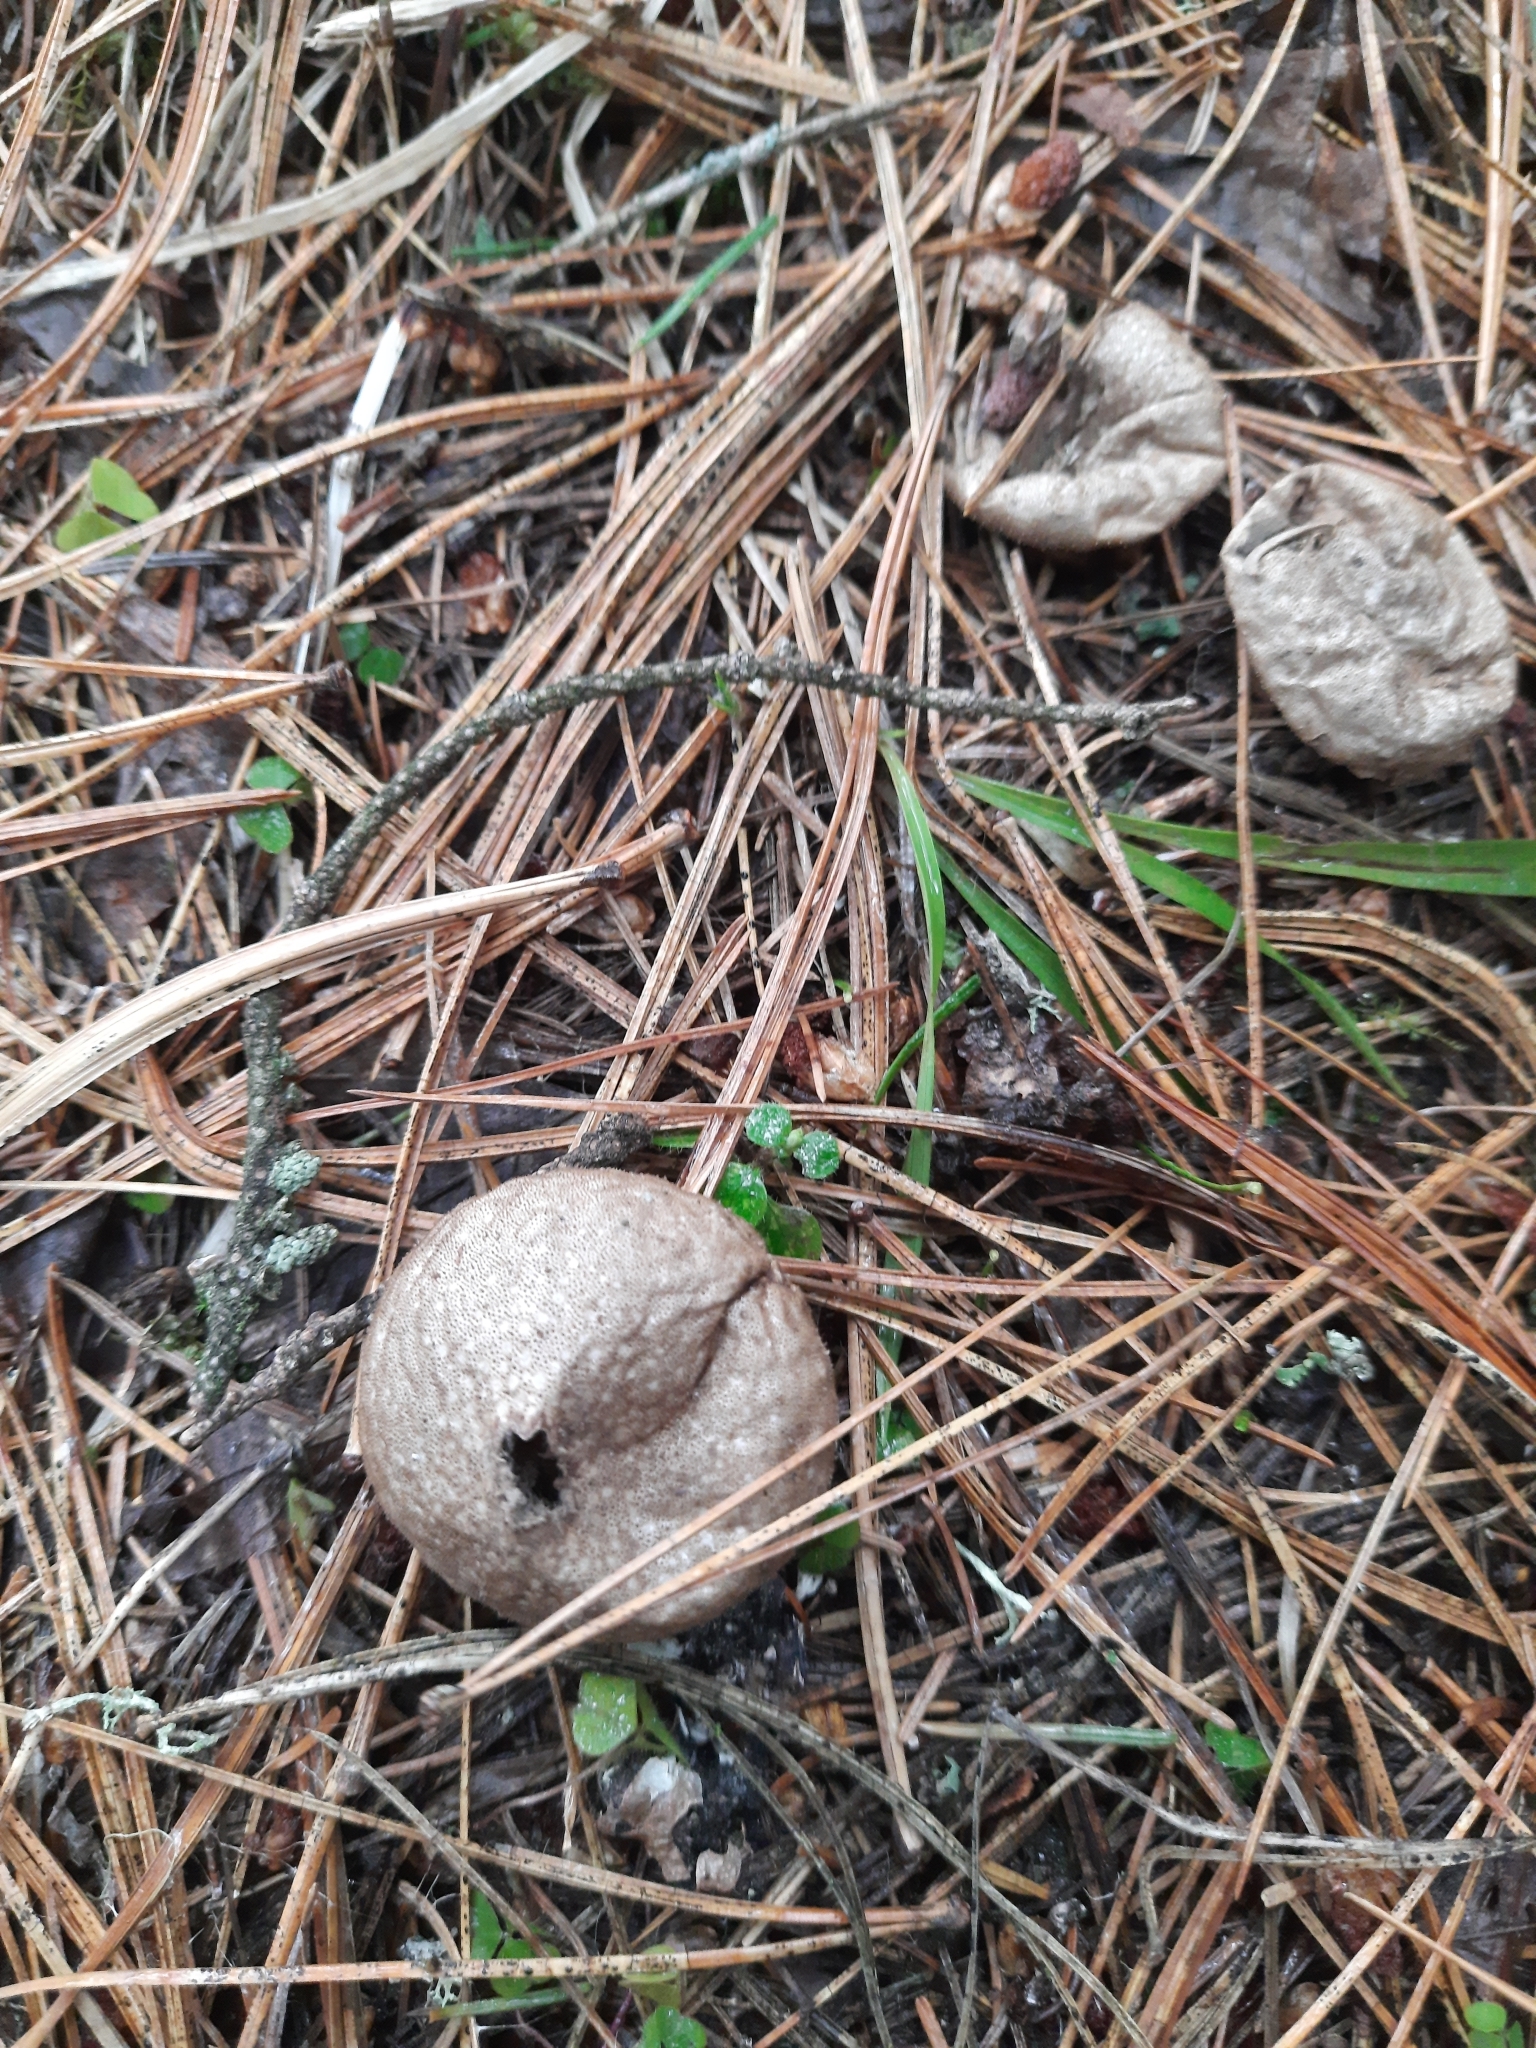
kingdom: Fungi
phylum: Basidiomycota
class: Agaricomycetes
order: Agaricales
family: Lycoperdaceae
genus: Lycoperdon
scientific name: Lycoperdon perlatum
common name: Common puffball
